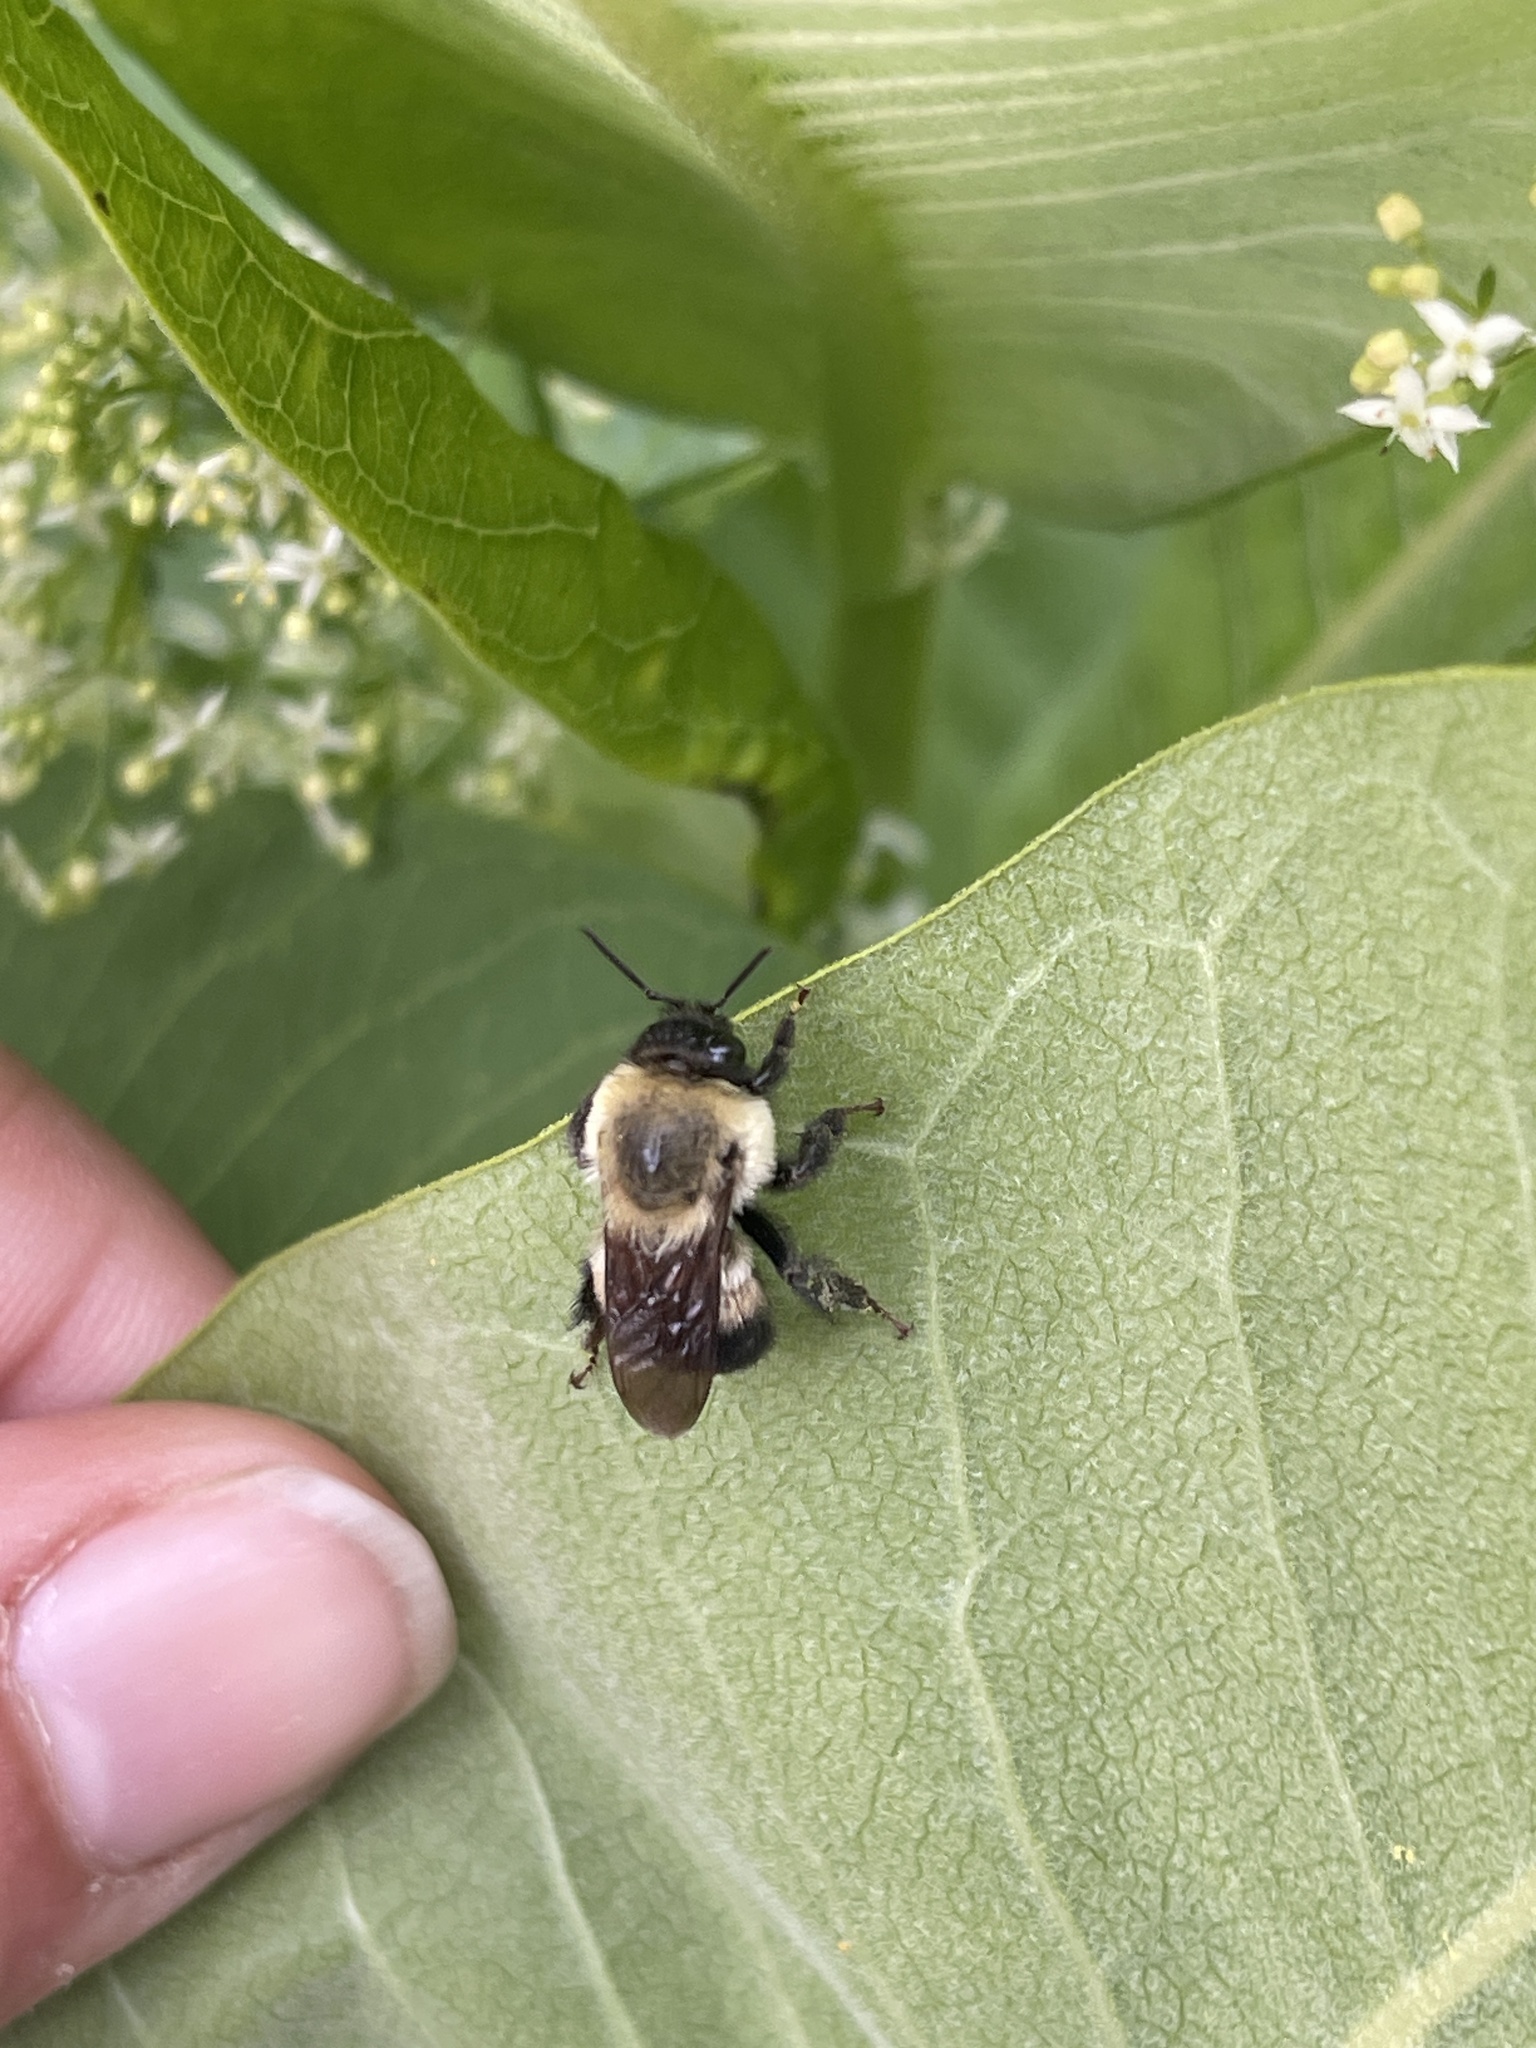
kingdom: Animalia
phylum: Arthropoda
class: Insecta
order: Hymenoptera
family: Apidae
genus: Bombus
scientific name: Bombus griseocollis
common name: Brown-belted bumble bee
